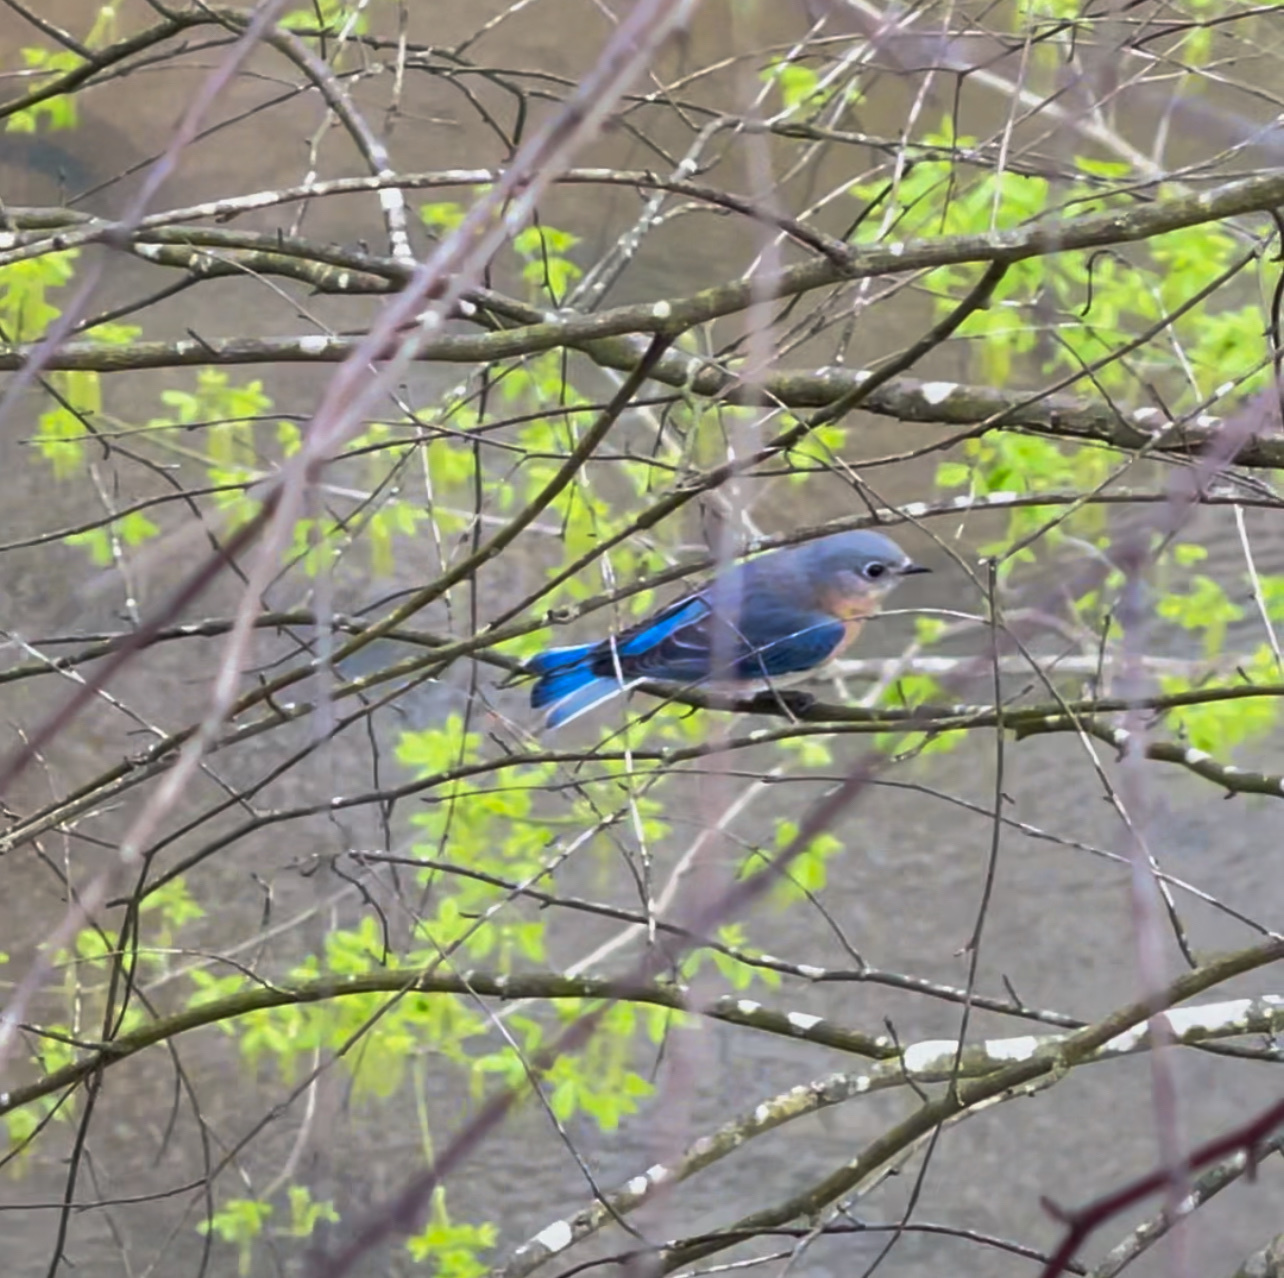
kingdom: Animalia
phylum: Chordata
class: Aves
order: Passeriformes
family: Turdidae
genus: Sialia
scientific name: Sialia sialis
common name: Eastern bluebird
